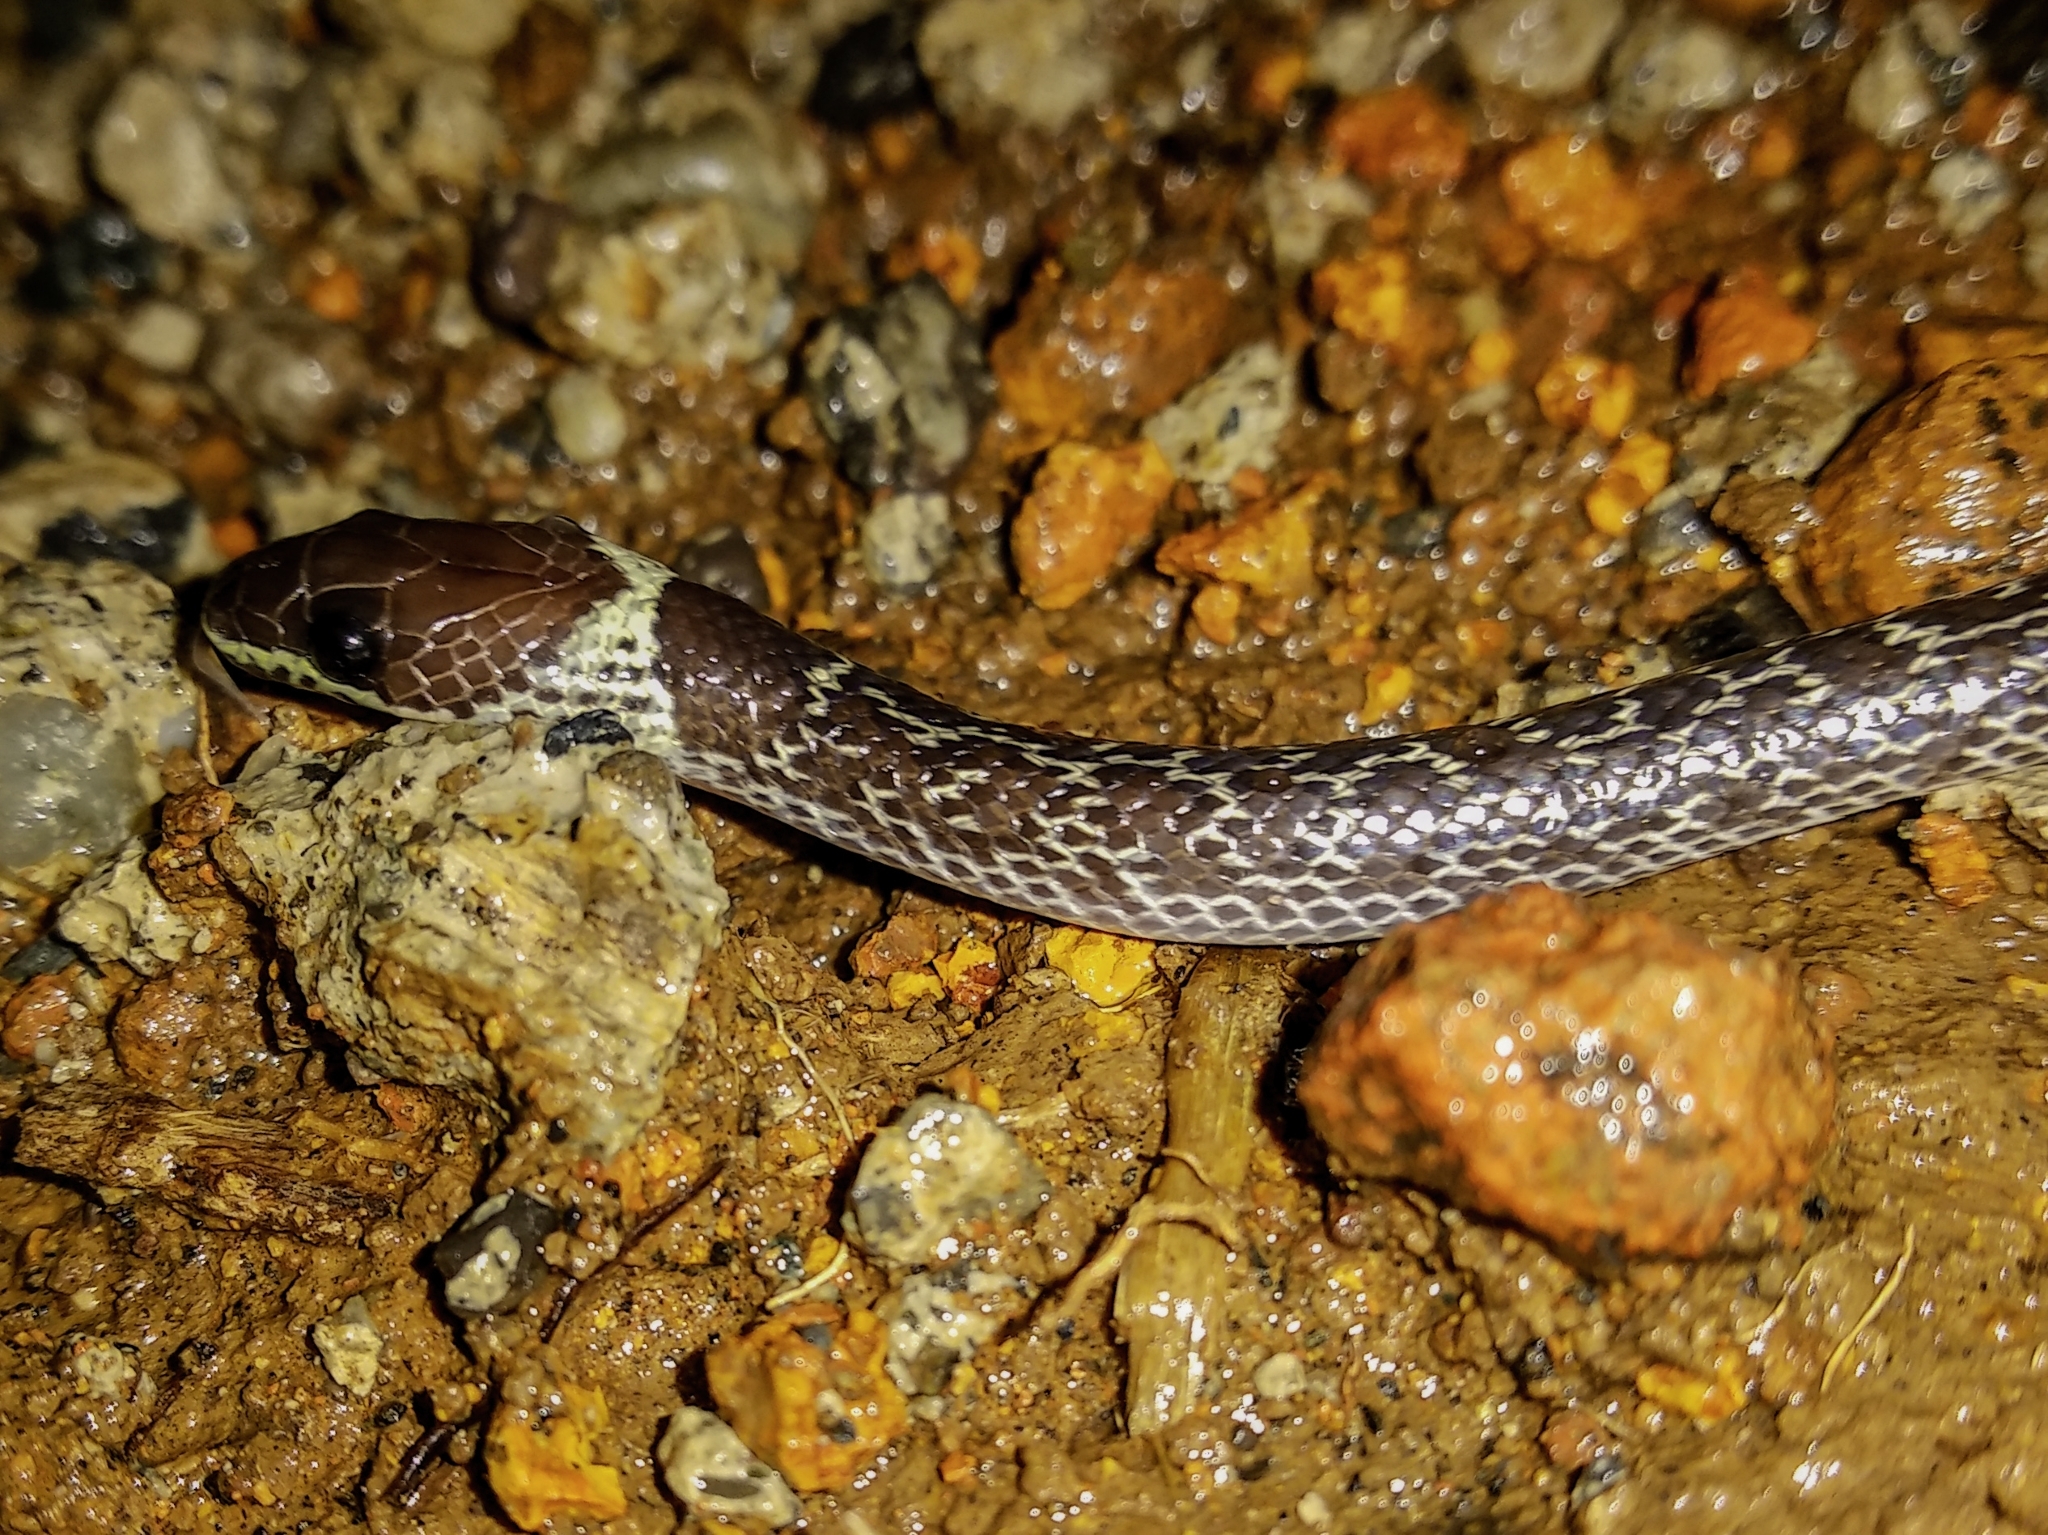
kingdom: Animalia
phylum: Chordata
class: Squamata
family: Colubridae
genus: Lycodon
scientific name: Lycodon capucinus
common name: Common wold snake/house snake
